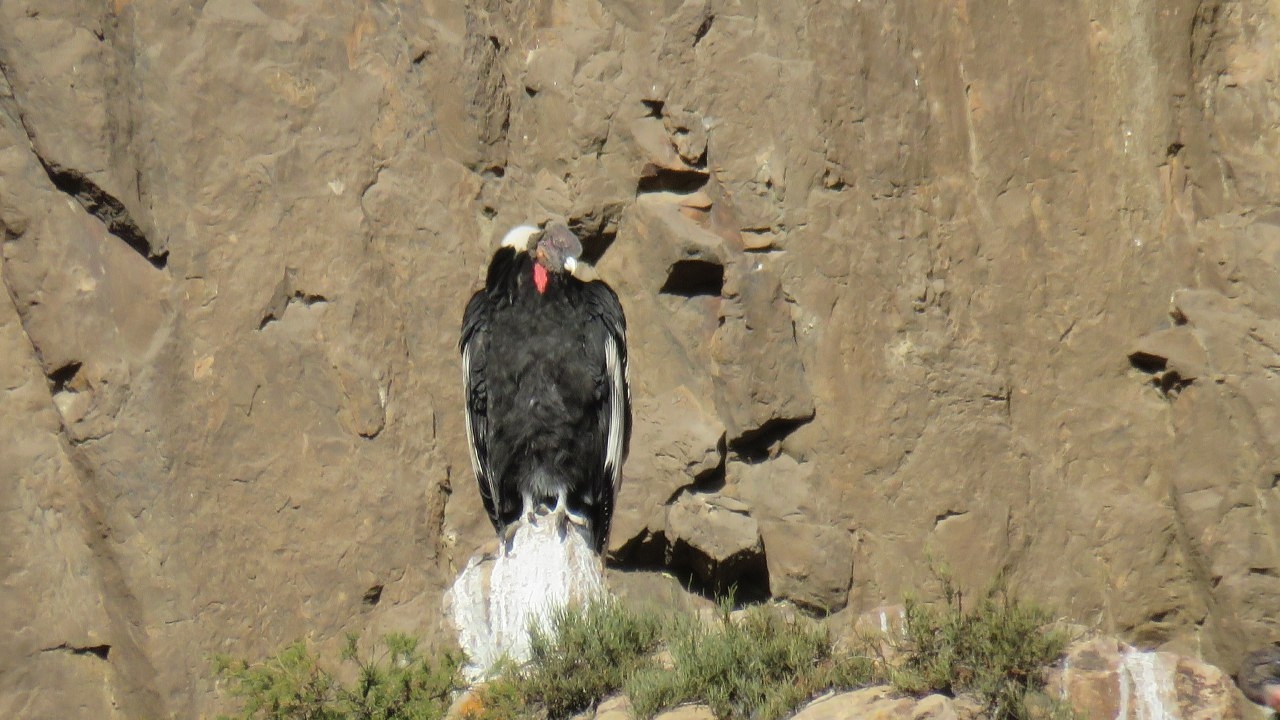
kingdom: Animalia
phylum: Chordata
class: Aves
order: Accipitriformes
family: Cathartidae
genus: Vultur
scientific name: Vultur gryphus
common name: Andean condor
